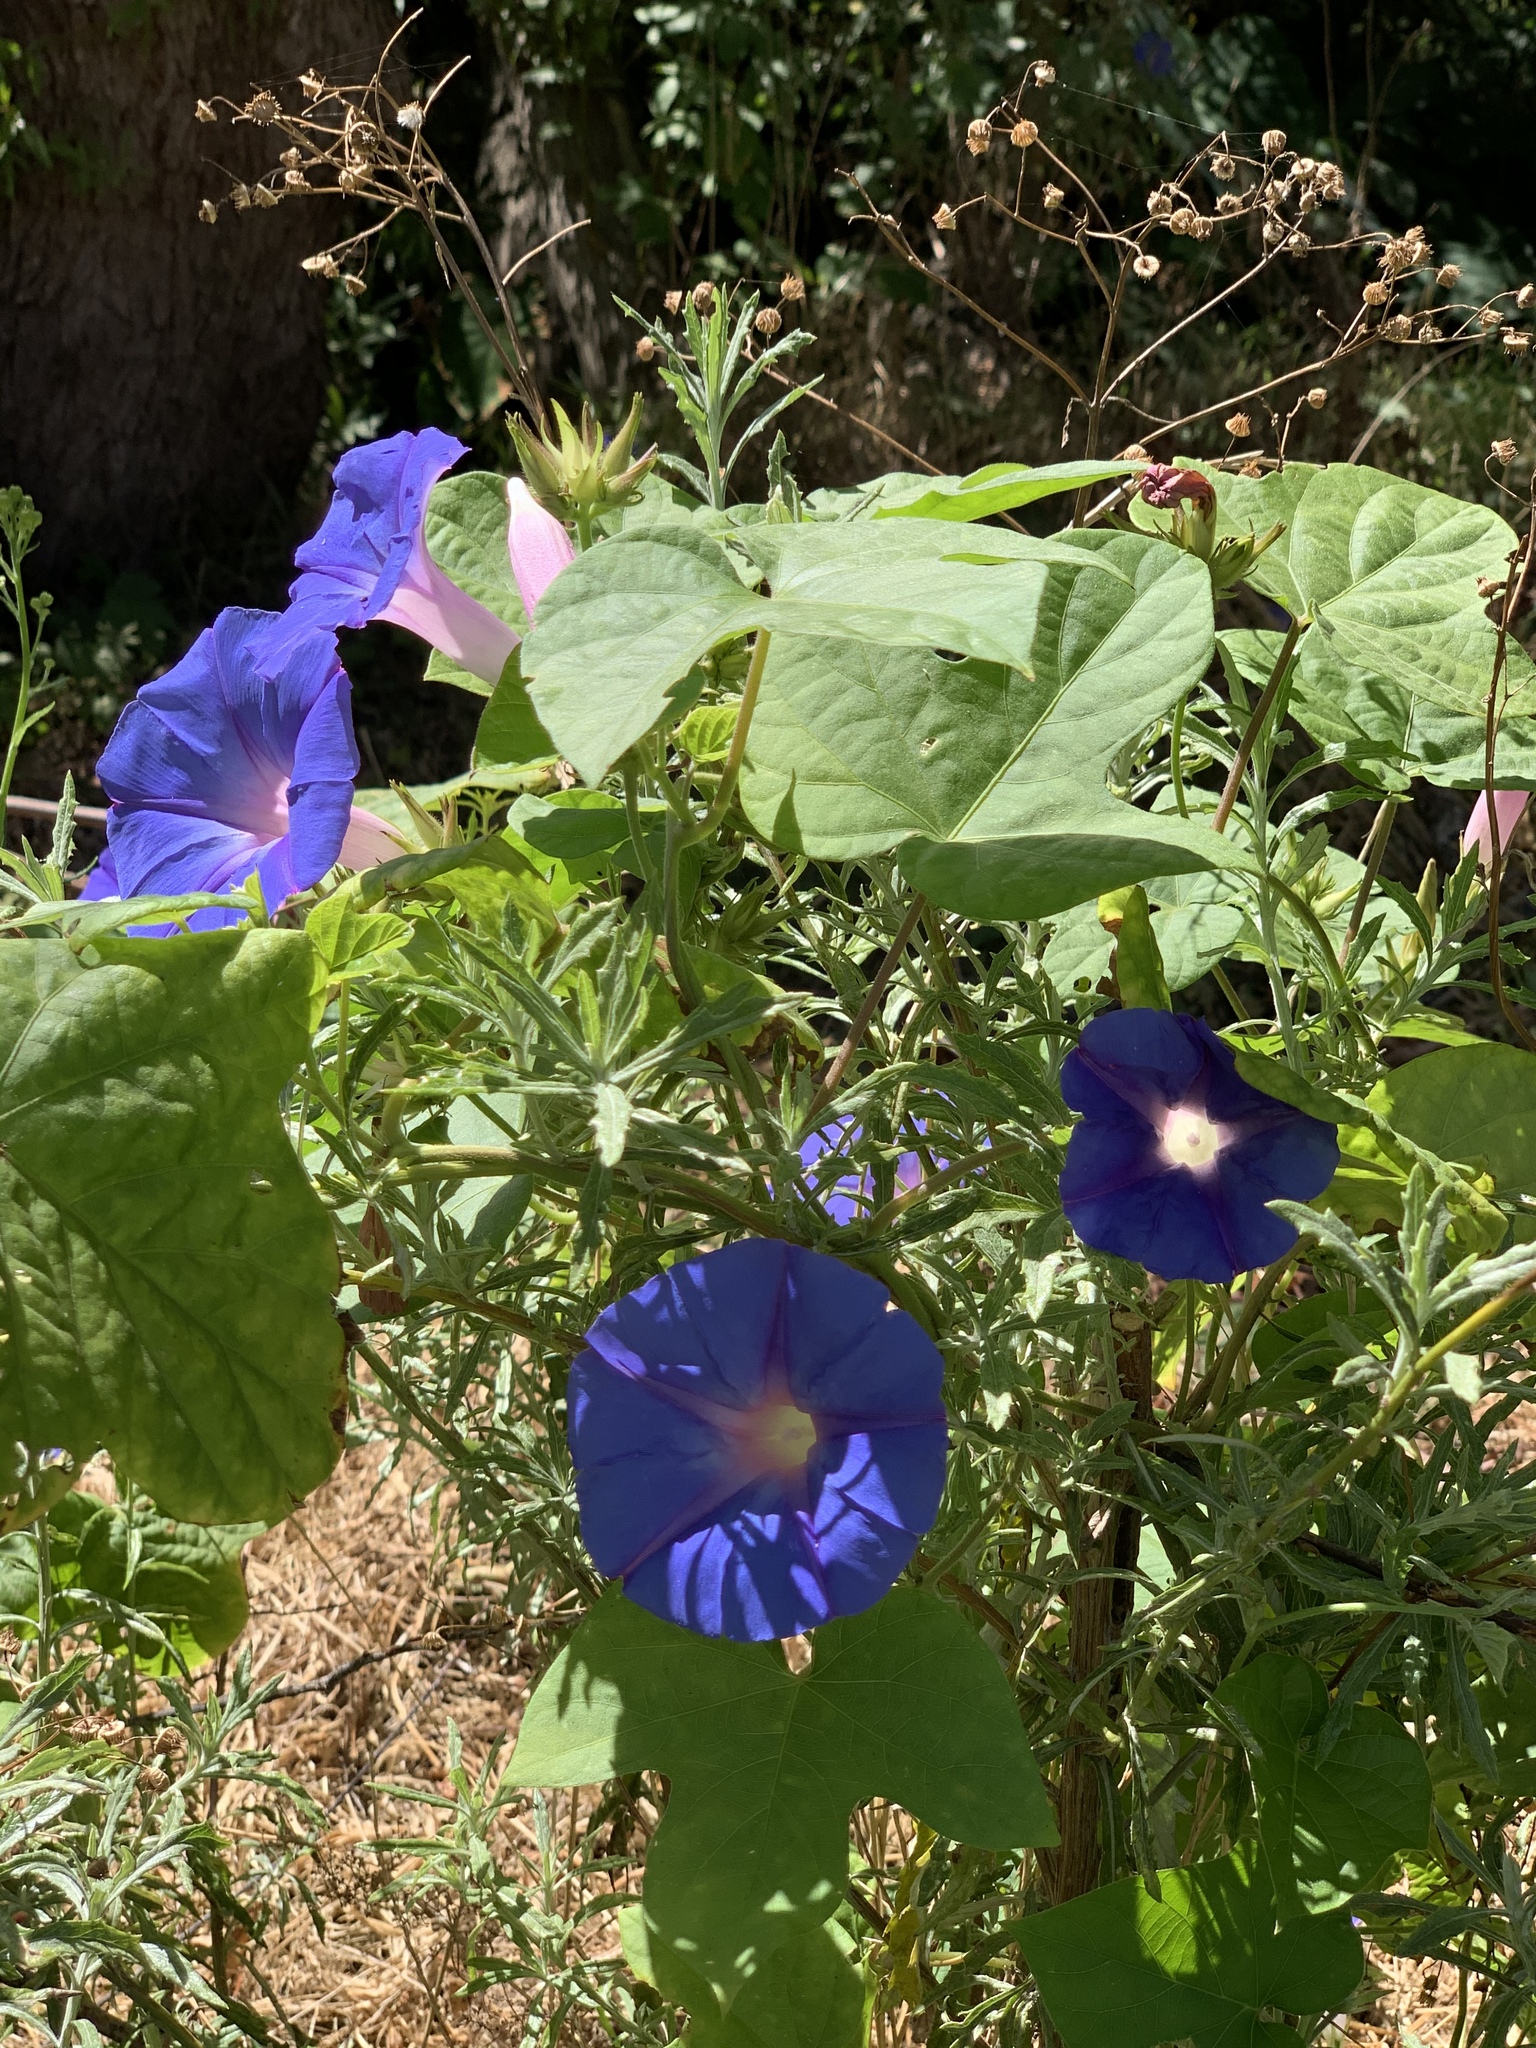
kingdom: Plantae
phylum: Tracheophyta
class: Magnoliopsida
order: Solanales
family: Convolvulaceae
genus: Ipomoea
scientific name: Ipomoea indica
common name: Blue dawnflower
